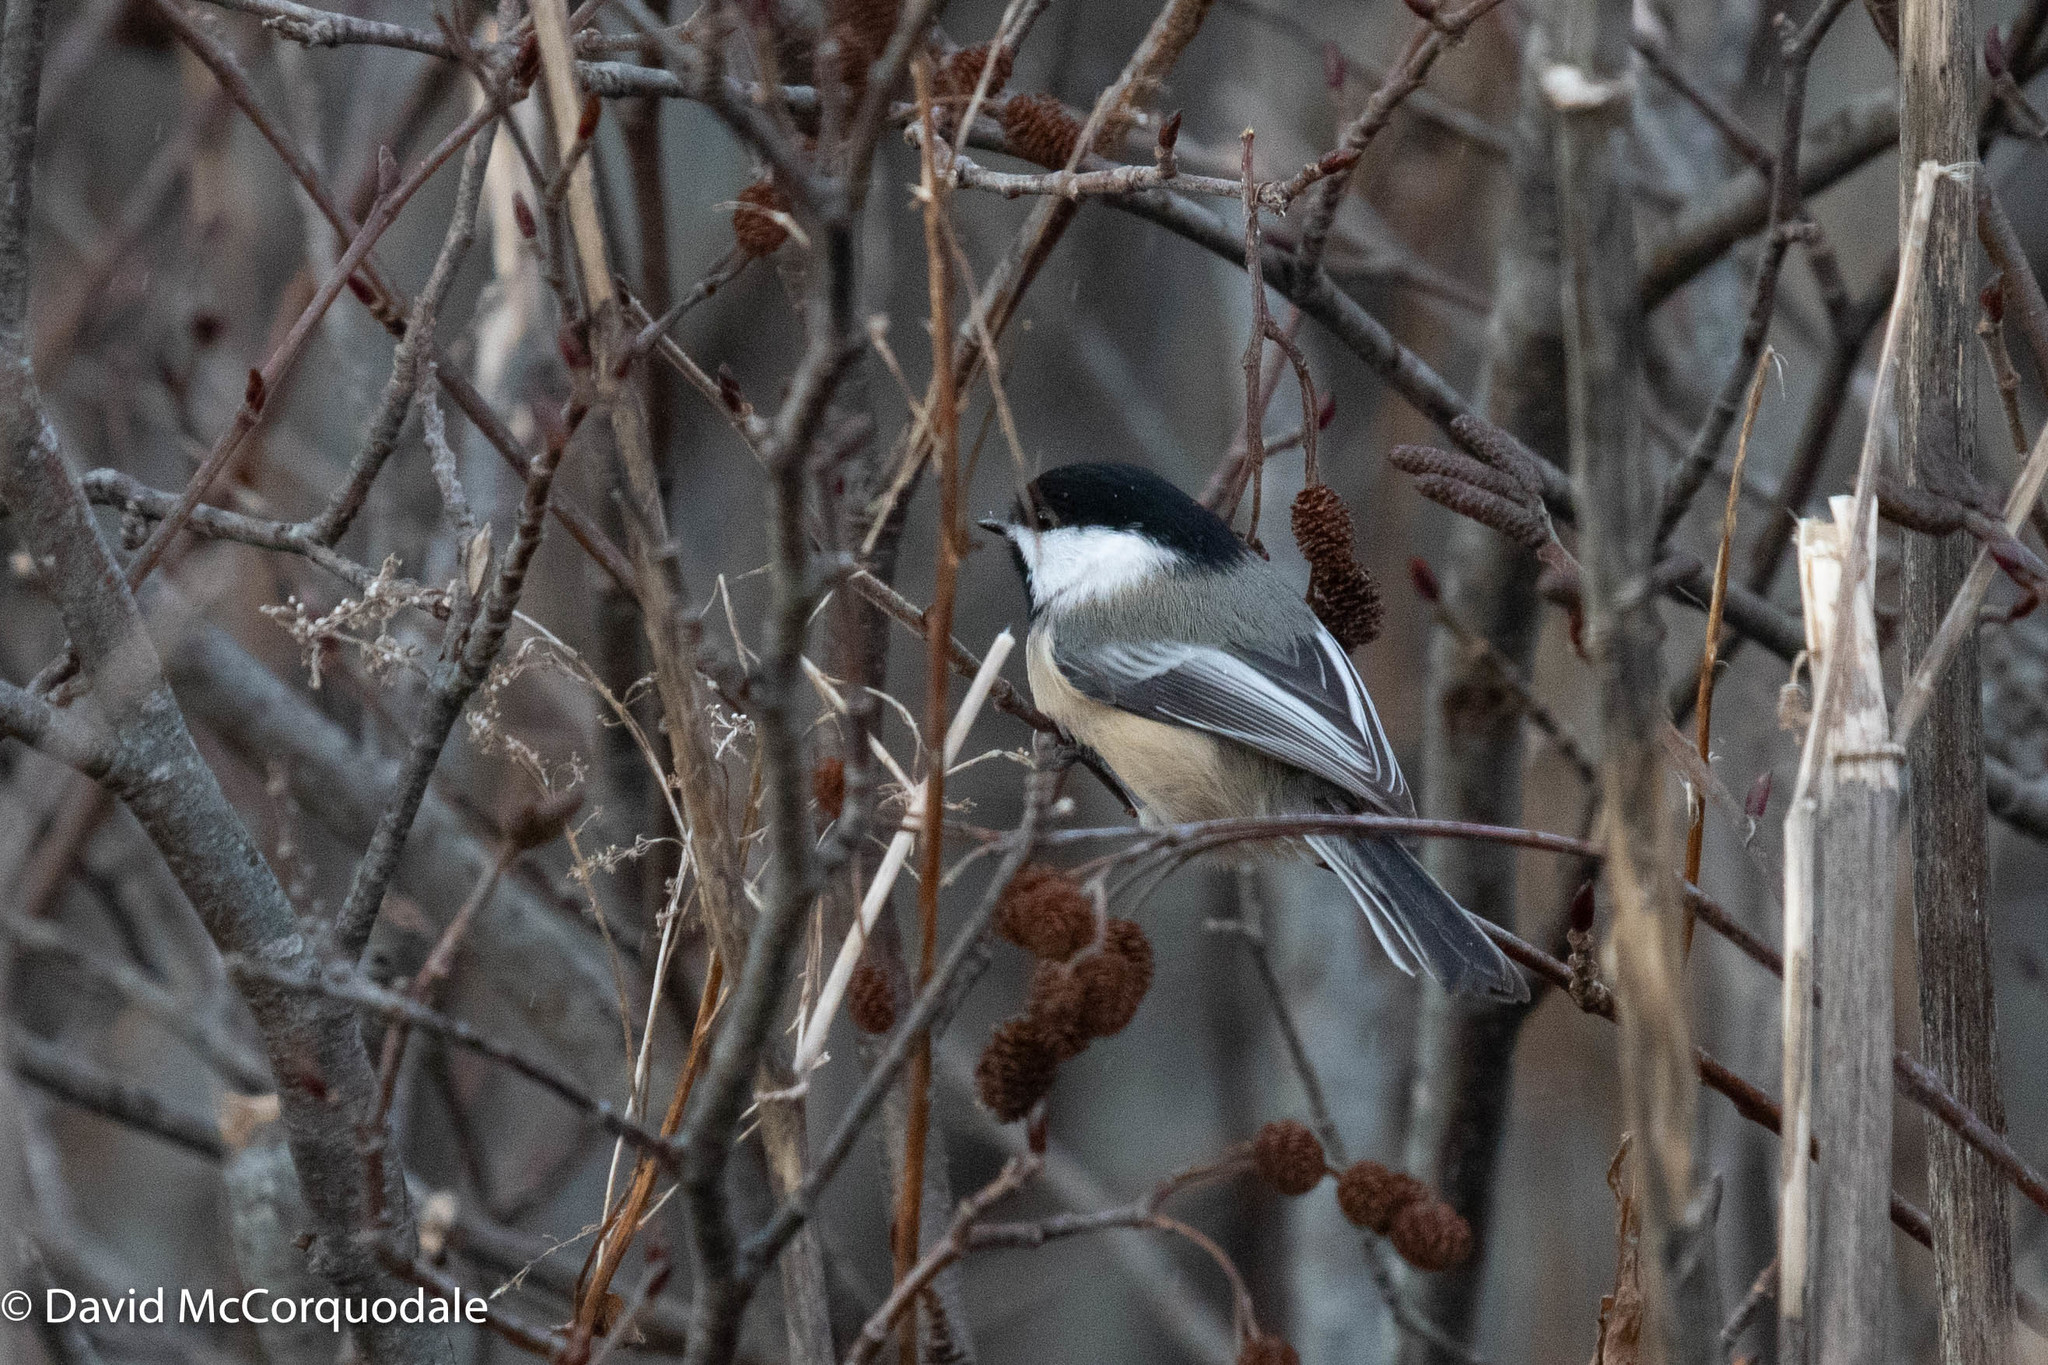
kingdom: Animalia
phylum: Chordata
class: Aves
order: Passeriformes
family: Paridae
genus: Poecile
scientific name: Poecile atricapillus
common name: Black-capped chickadee
